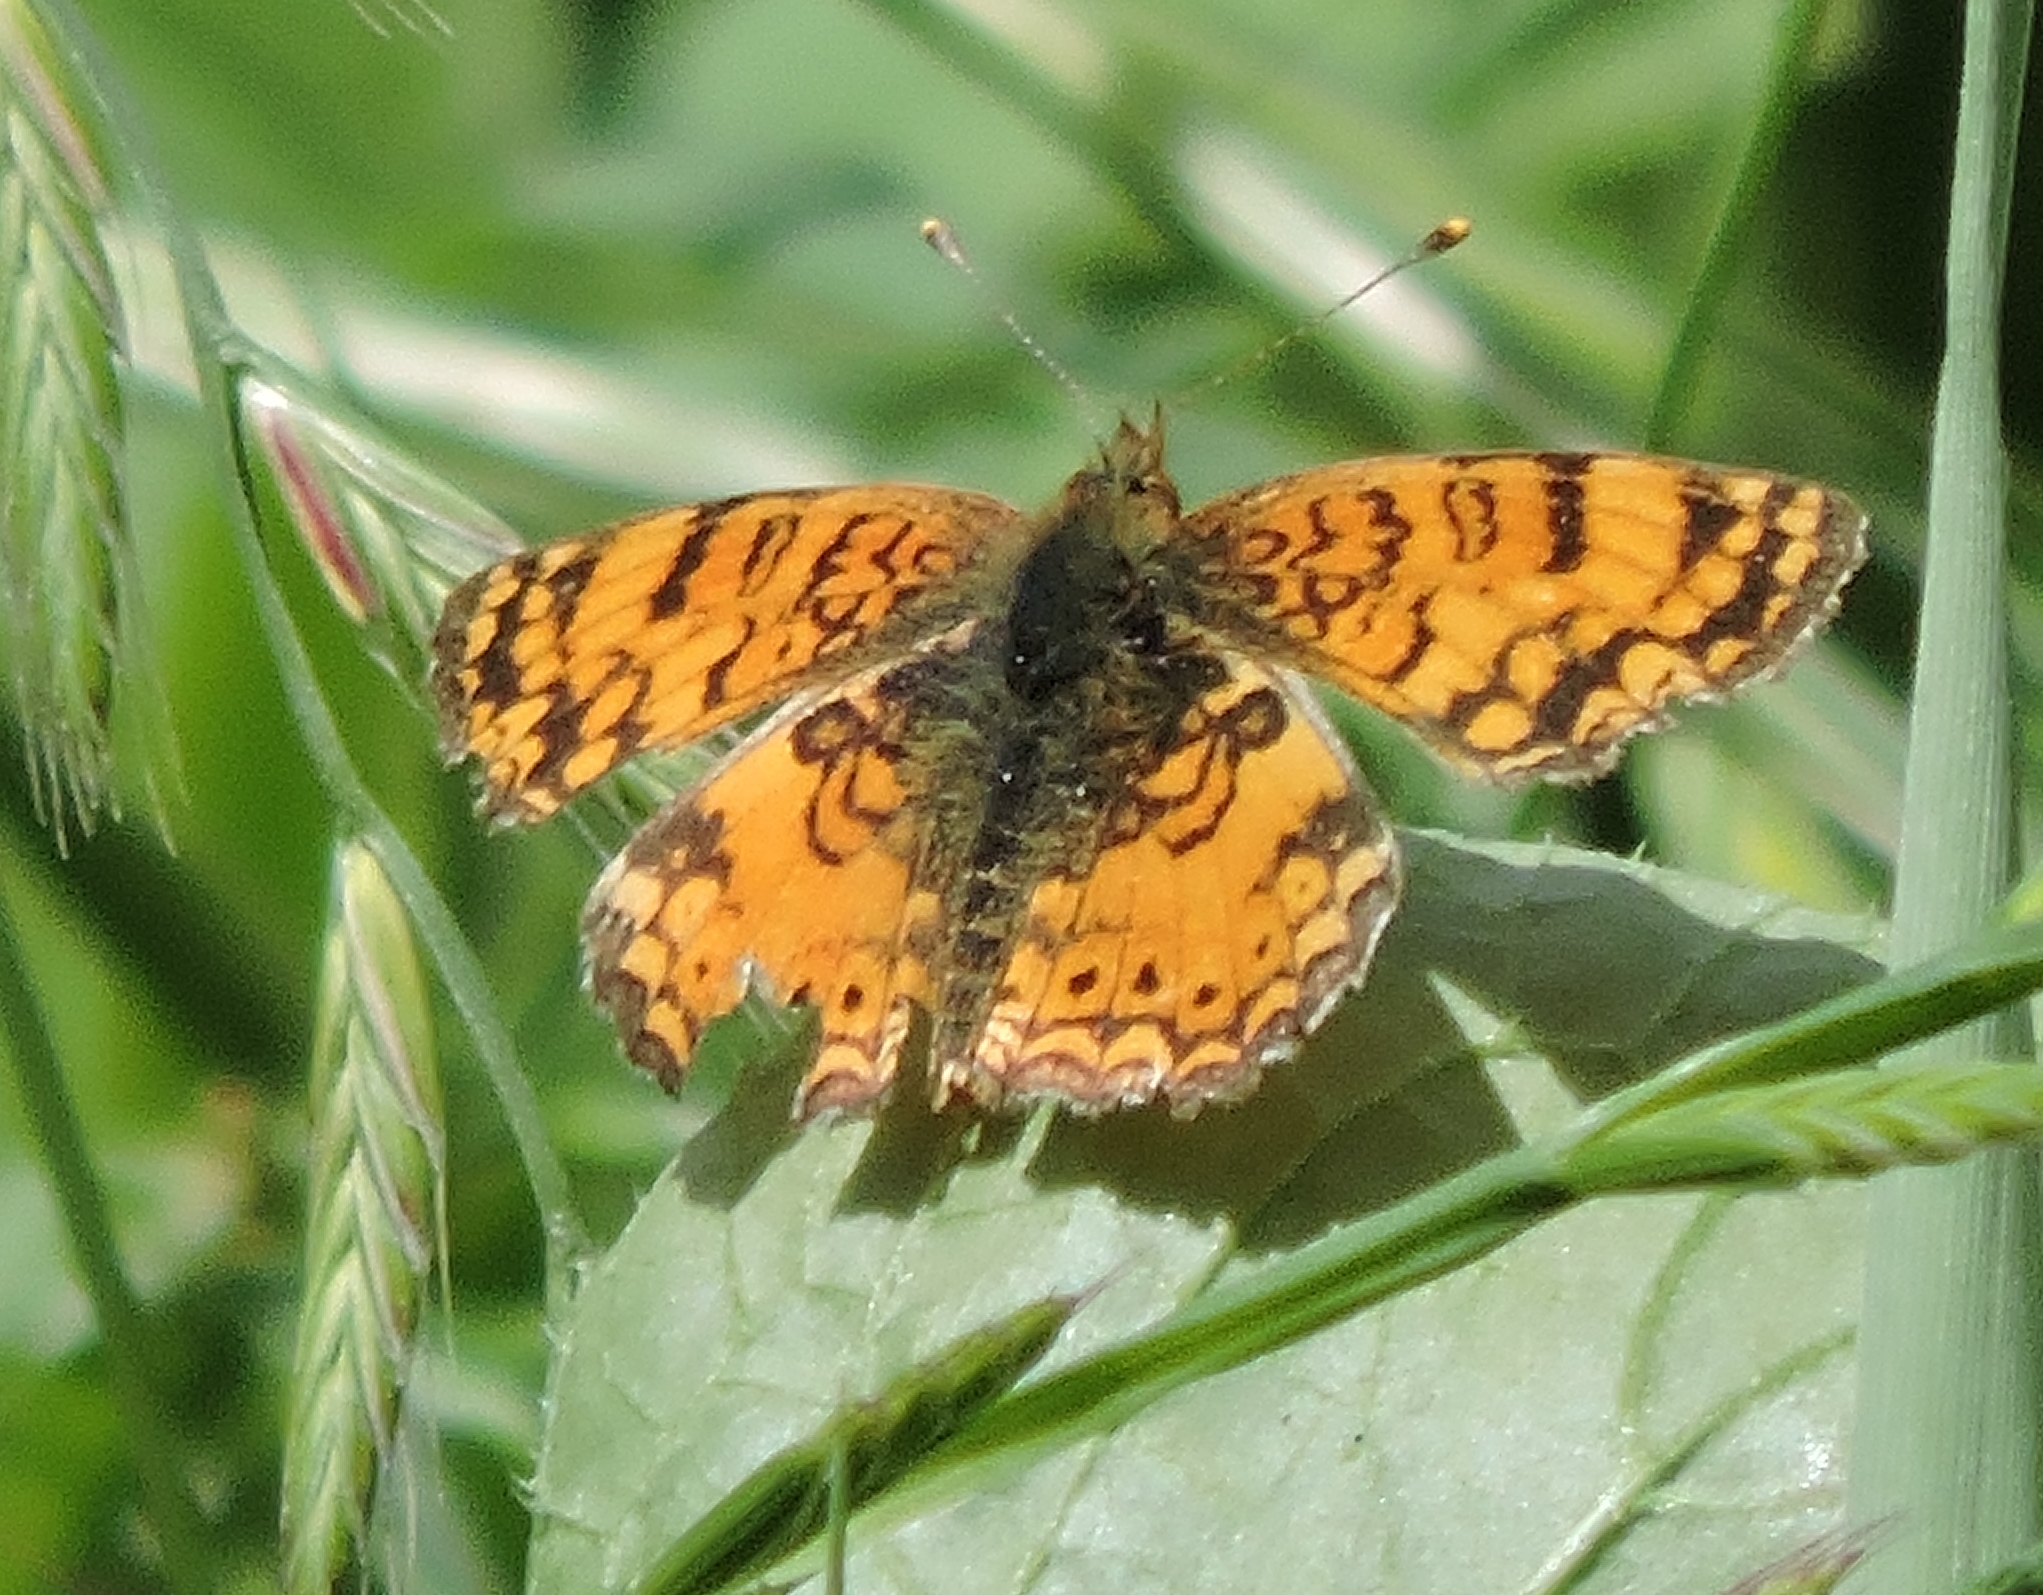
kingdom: Animalia
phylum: Arthropoda
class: Insecta
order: Lepidoptera
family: Nymphalidae
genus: Eresia
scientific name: Eresia aveyrona
